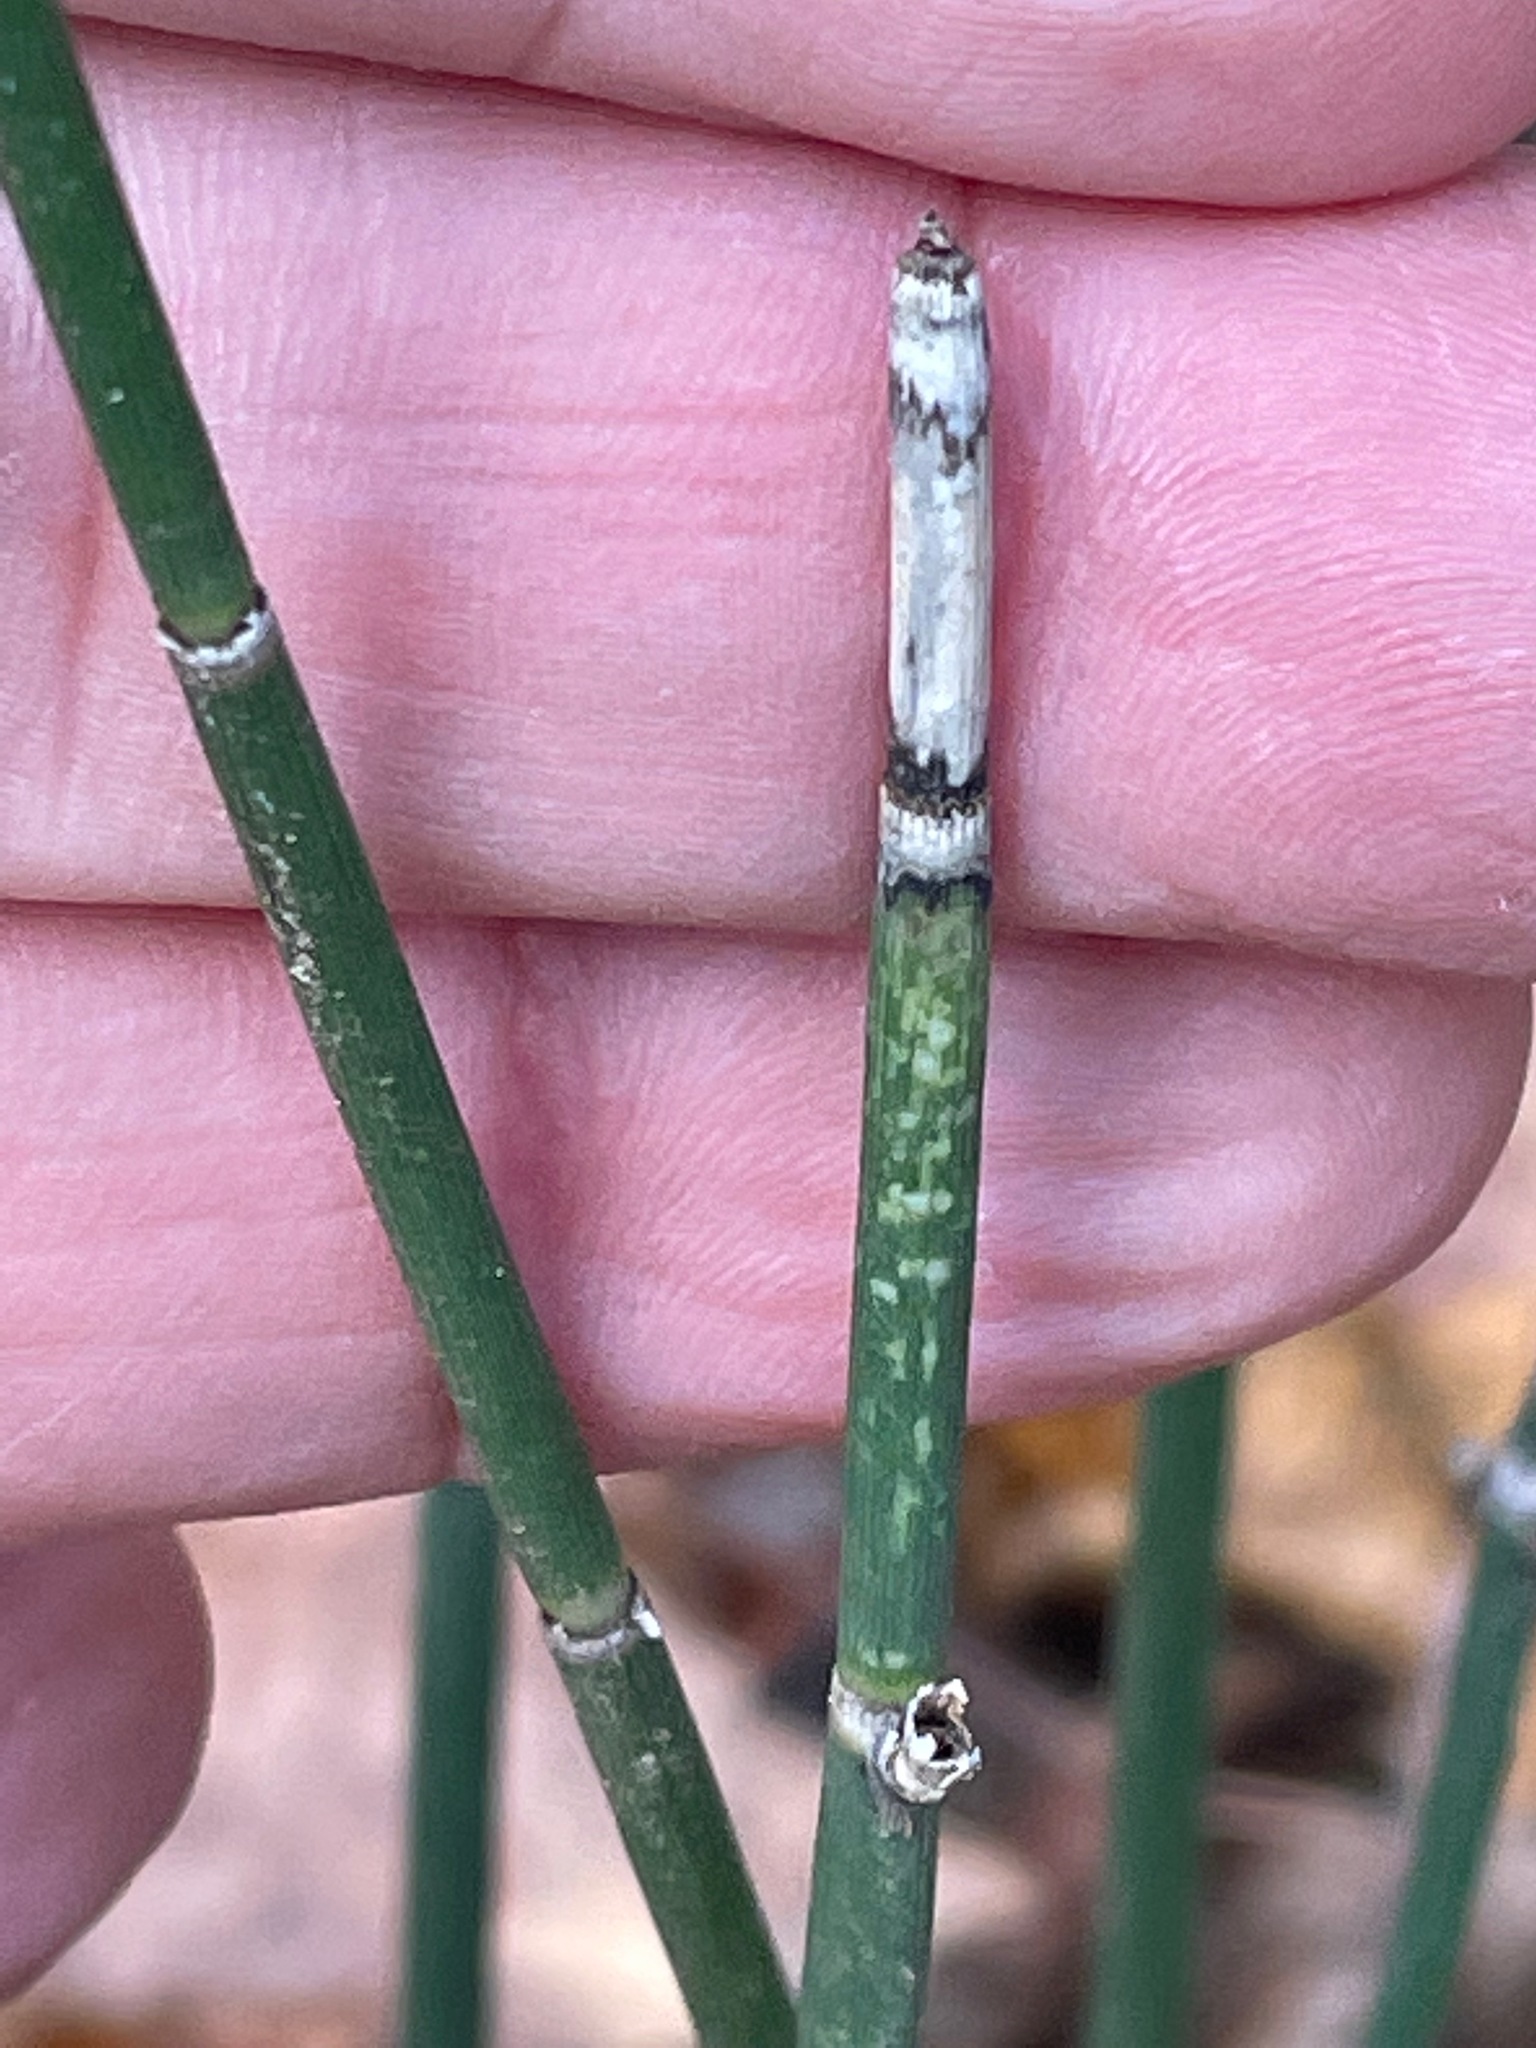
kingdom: Plantae
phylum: Tracheophyta
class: Polypodiopsida
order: Equisetales
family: Equisetaceae
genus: Equisetum
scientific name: Equisetum hyemale
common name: Rough horsetail
